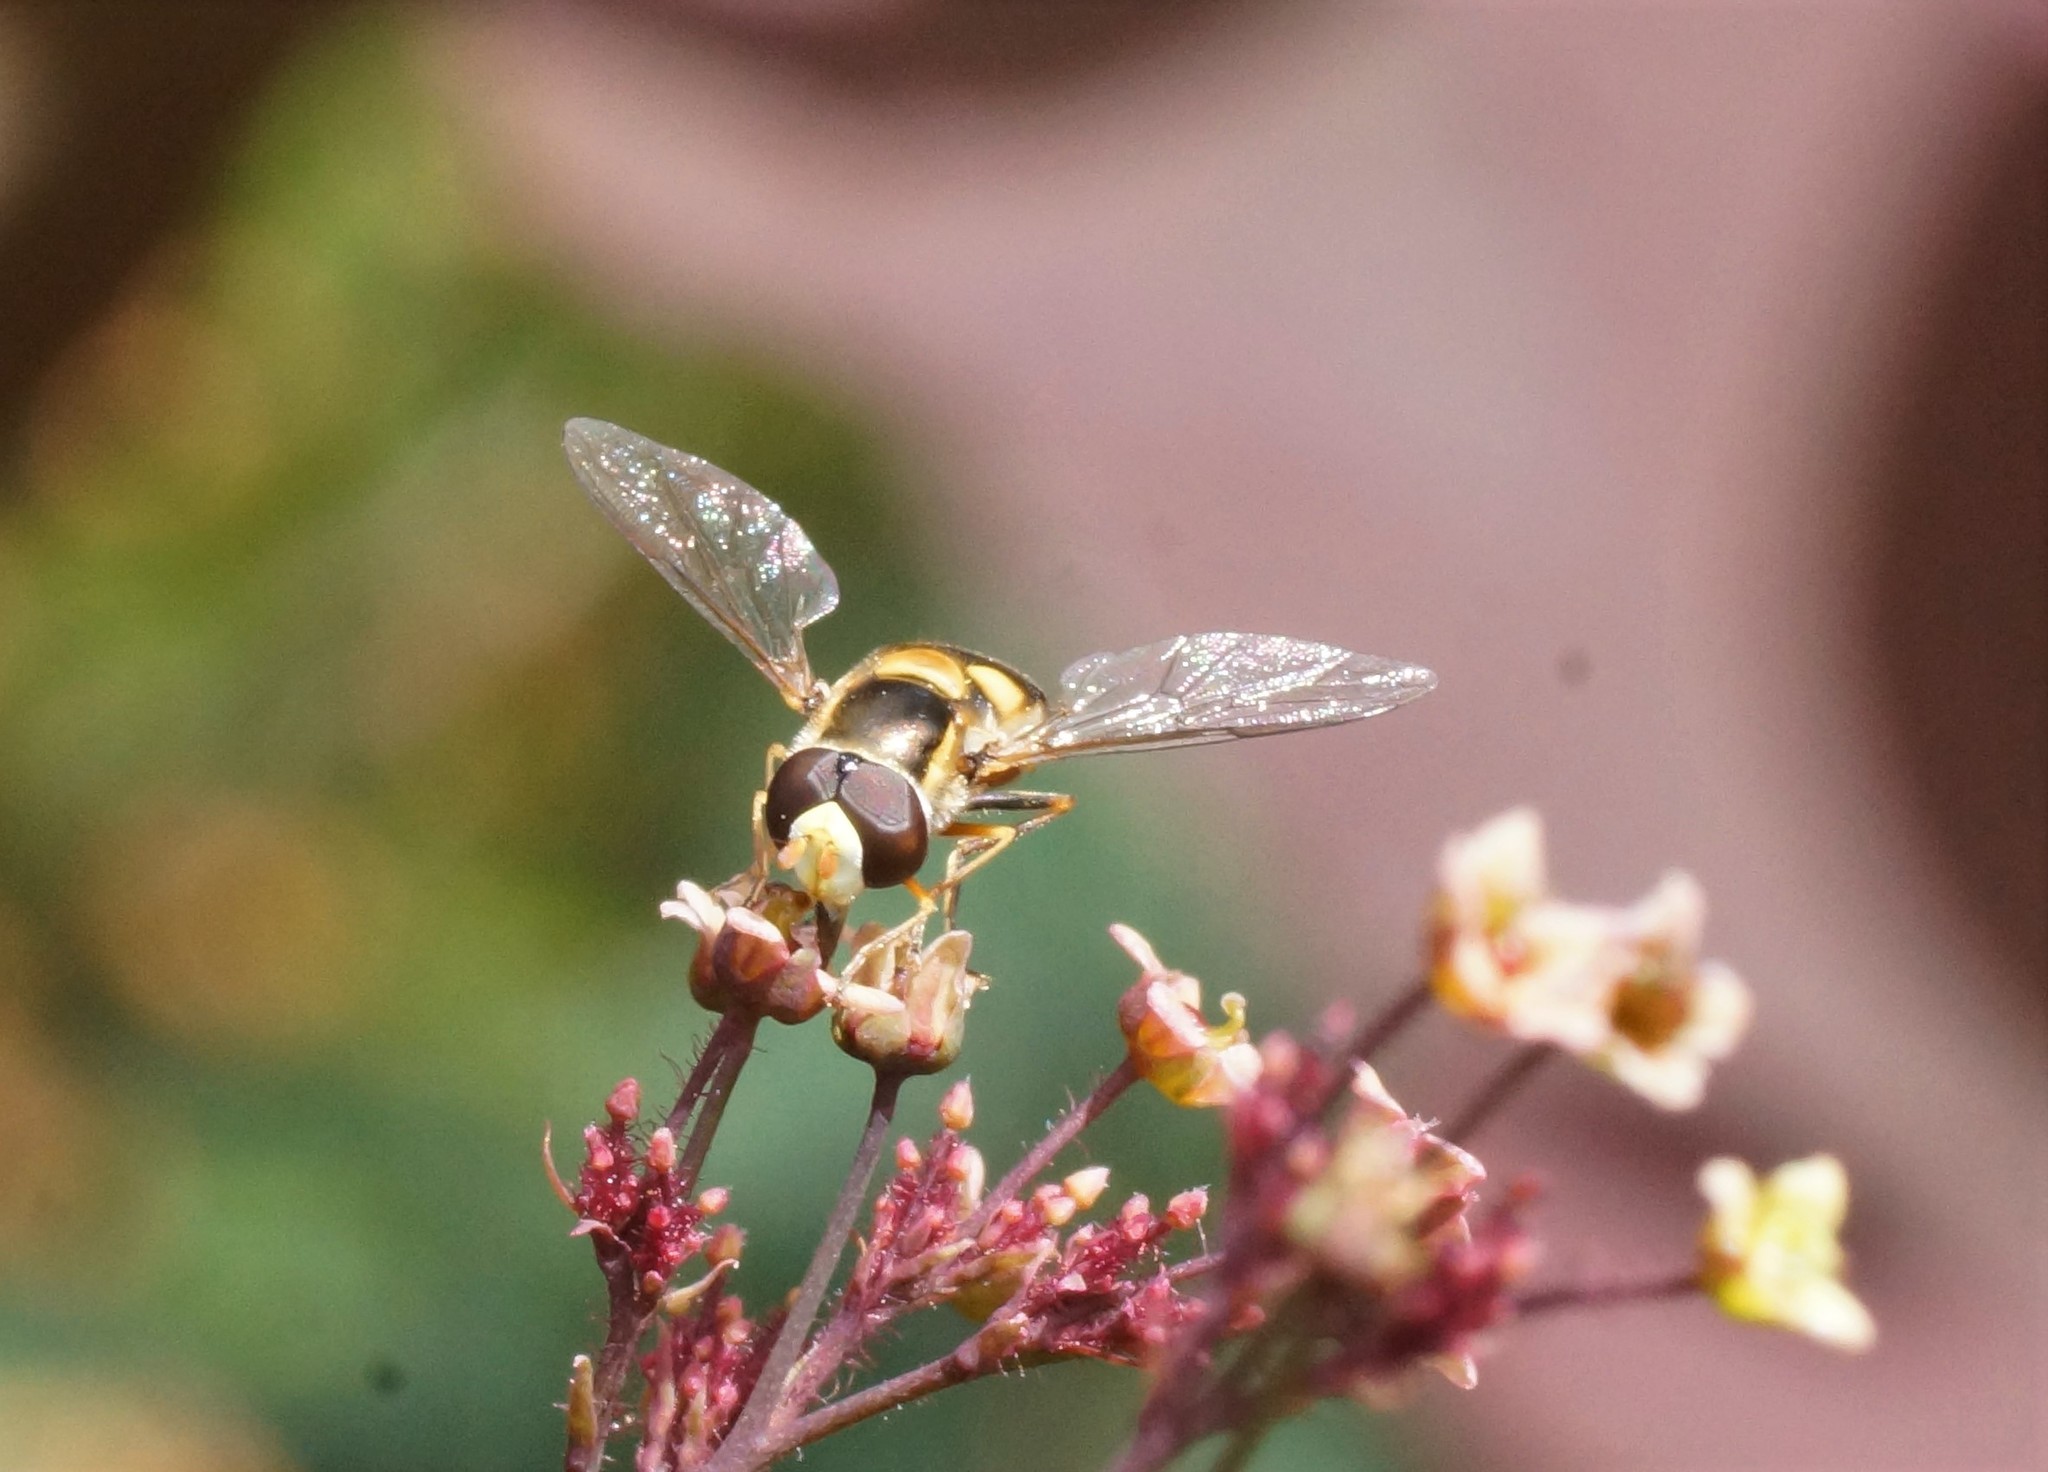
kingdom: Animalia
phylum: Arthropoda
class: Insecta
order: Diptera
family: Syrphidae
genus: Simosyrphus
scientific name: Simosyrphus grandicornis
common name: Hoverfly
